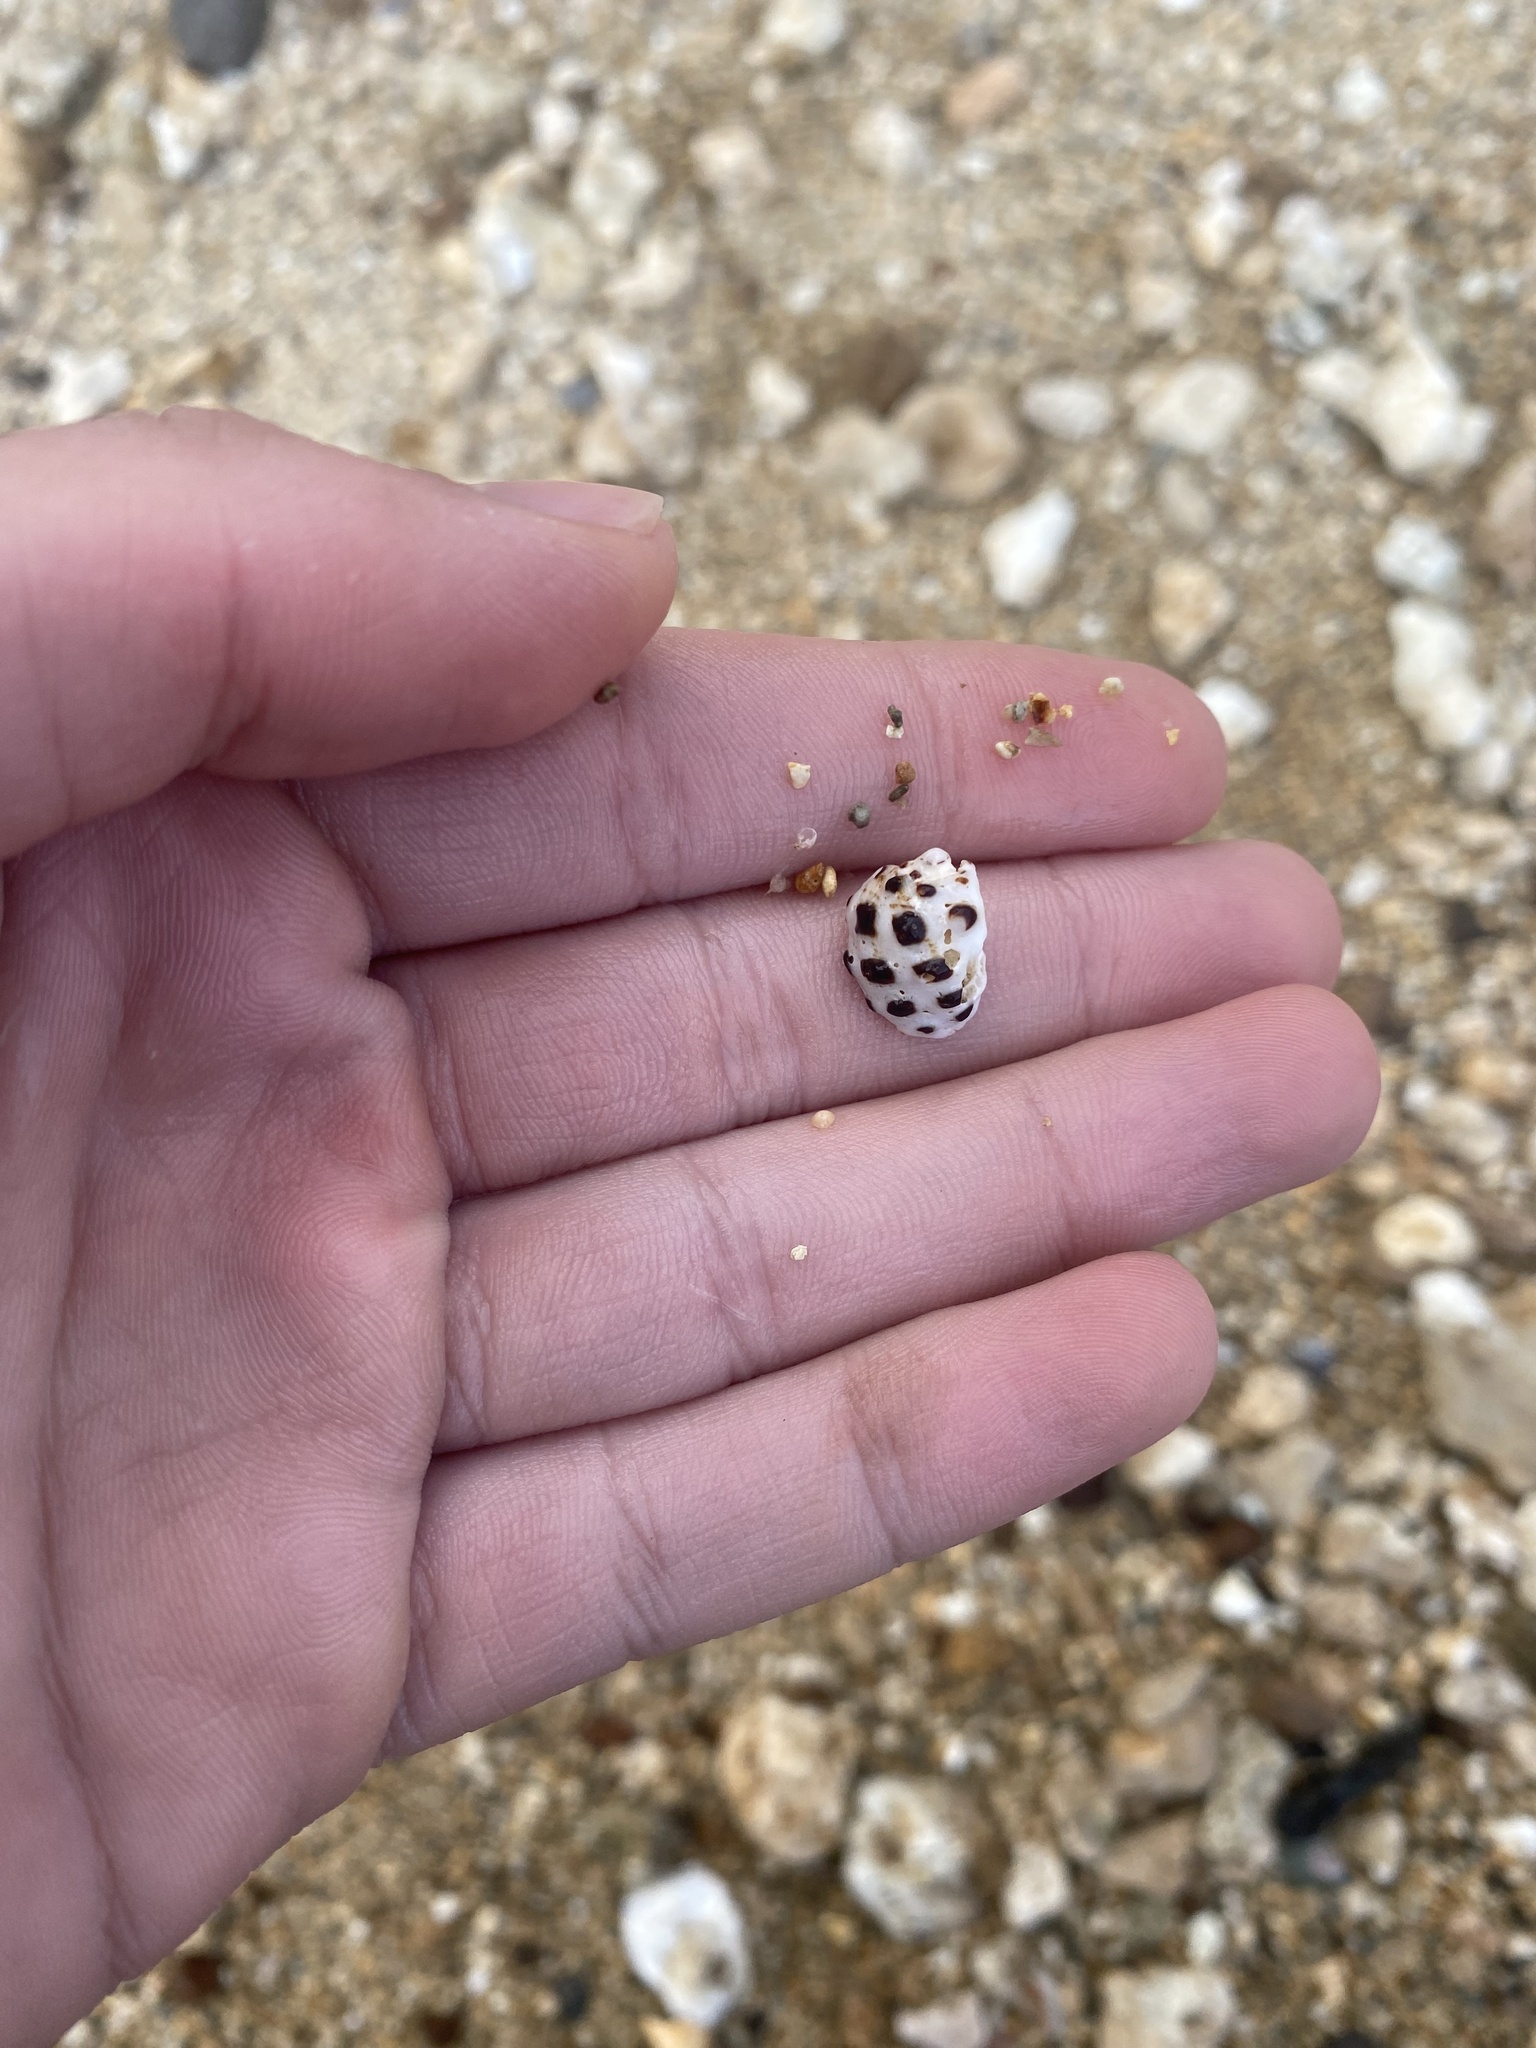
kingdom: Animalia
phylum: Mollusca
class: Gastropoda
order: Neogastropoda
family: Muricidae
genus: Drupa
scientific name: Drupa ricinus
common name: White-lipped castor bean
